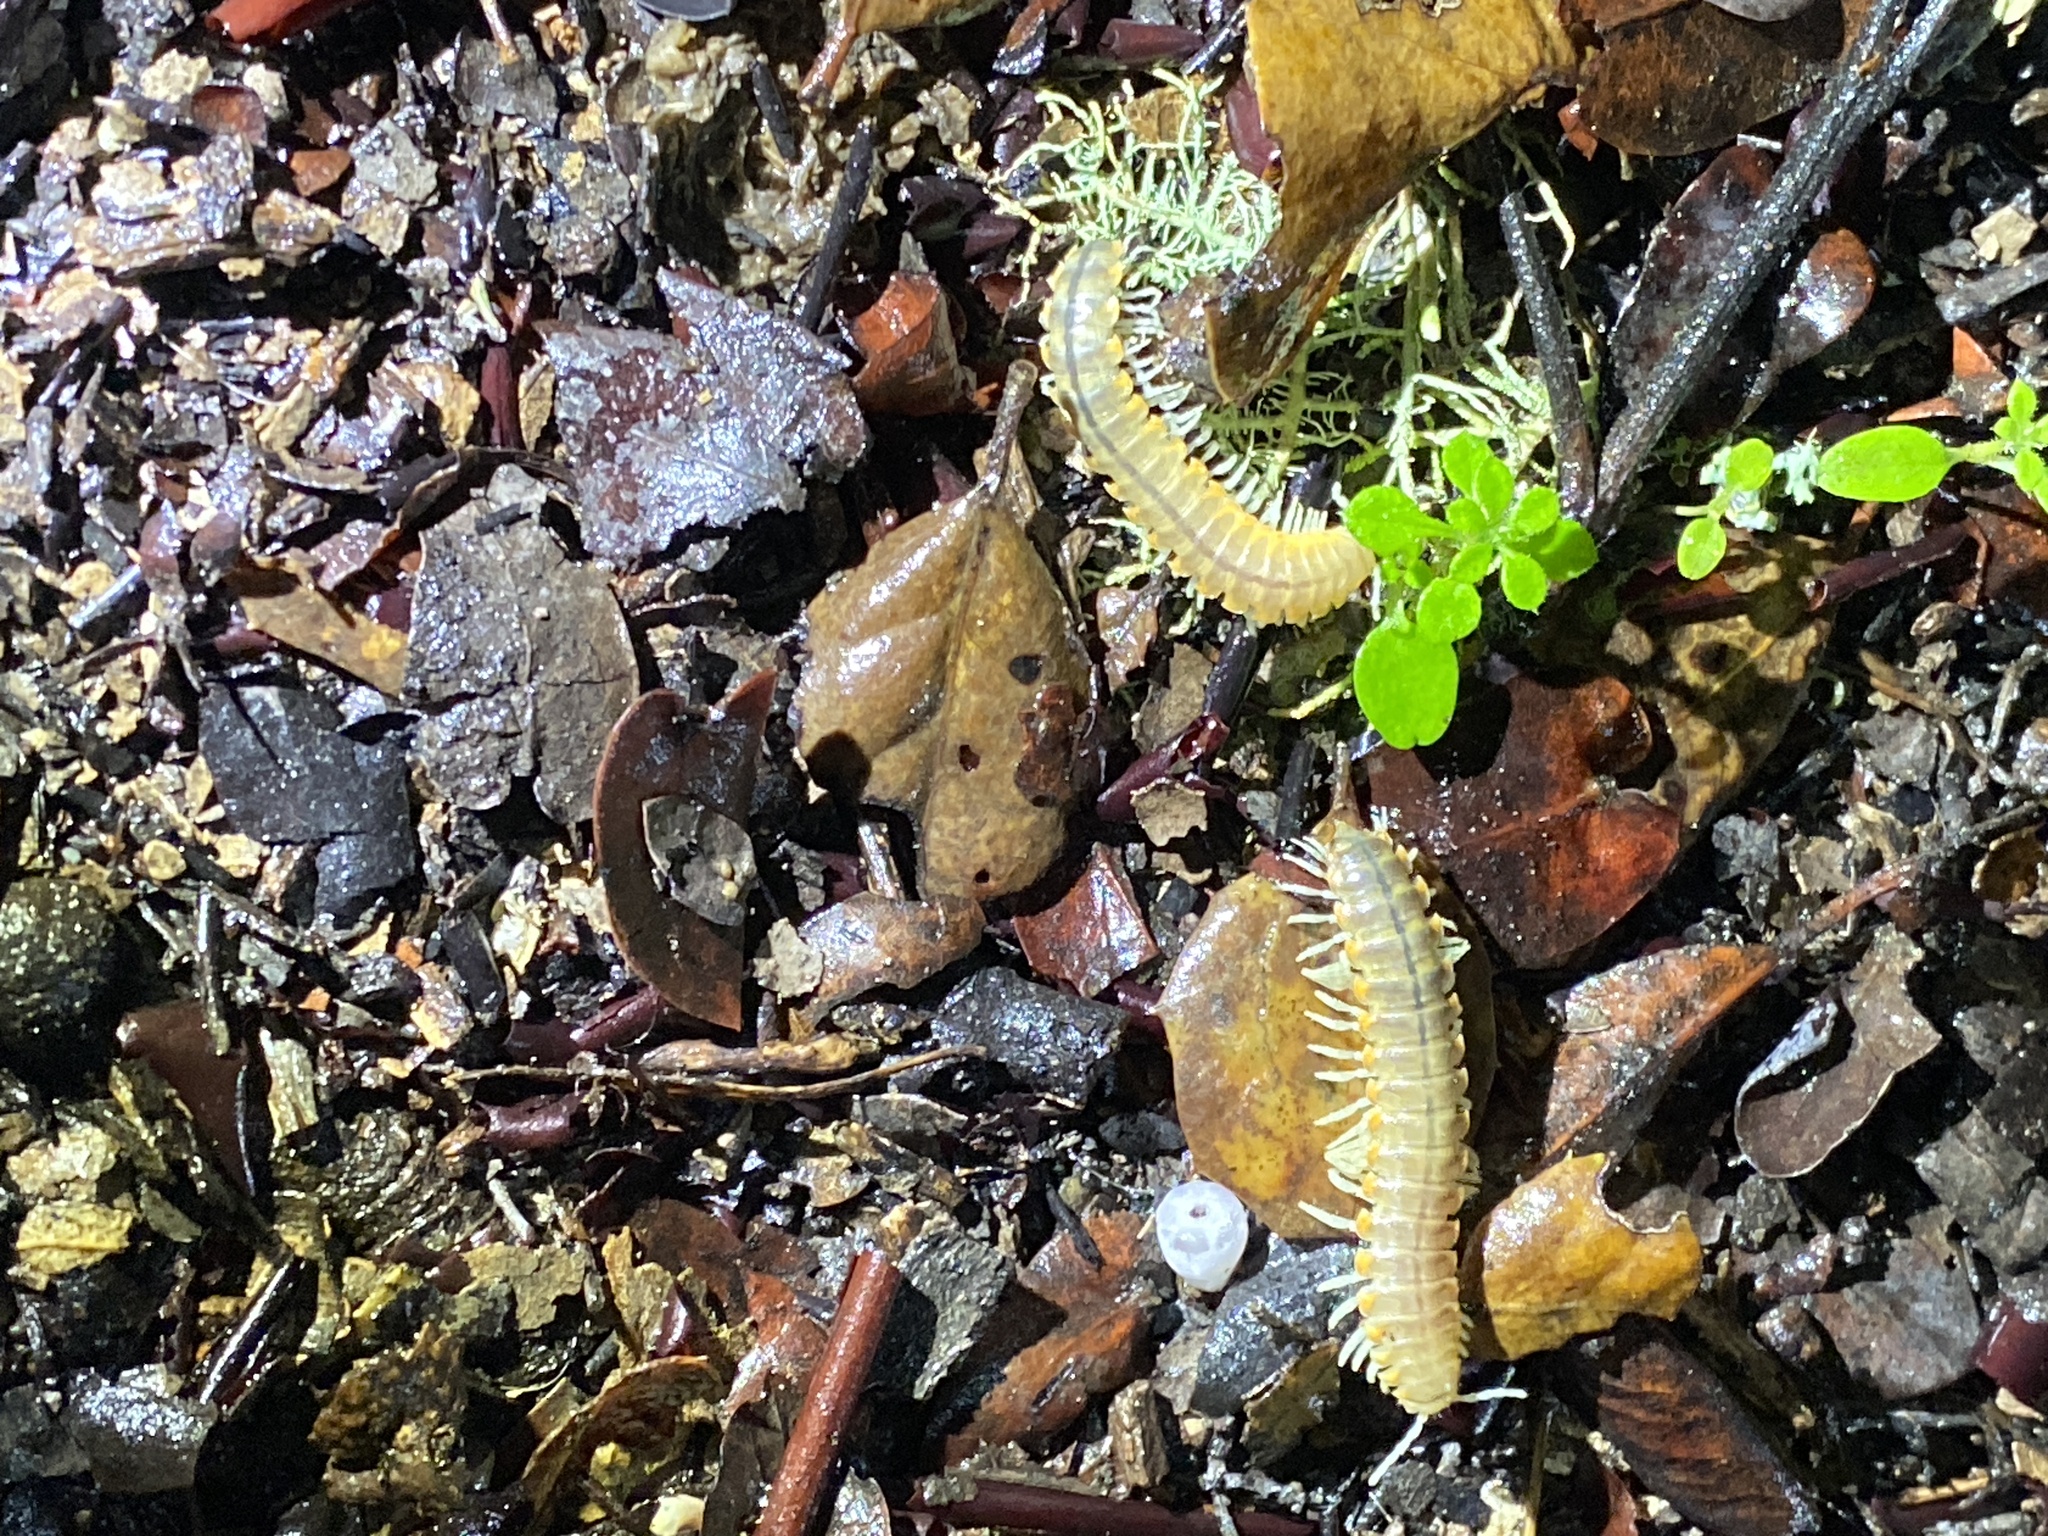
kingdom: Animalia
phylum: Arthropoda
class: Diplopoda
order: Polydesmida
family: Xystodesmidae
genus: Xystocheir
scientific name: Xystocheir dissecta
